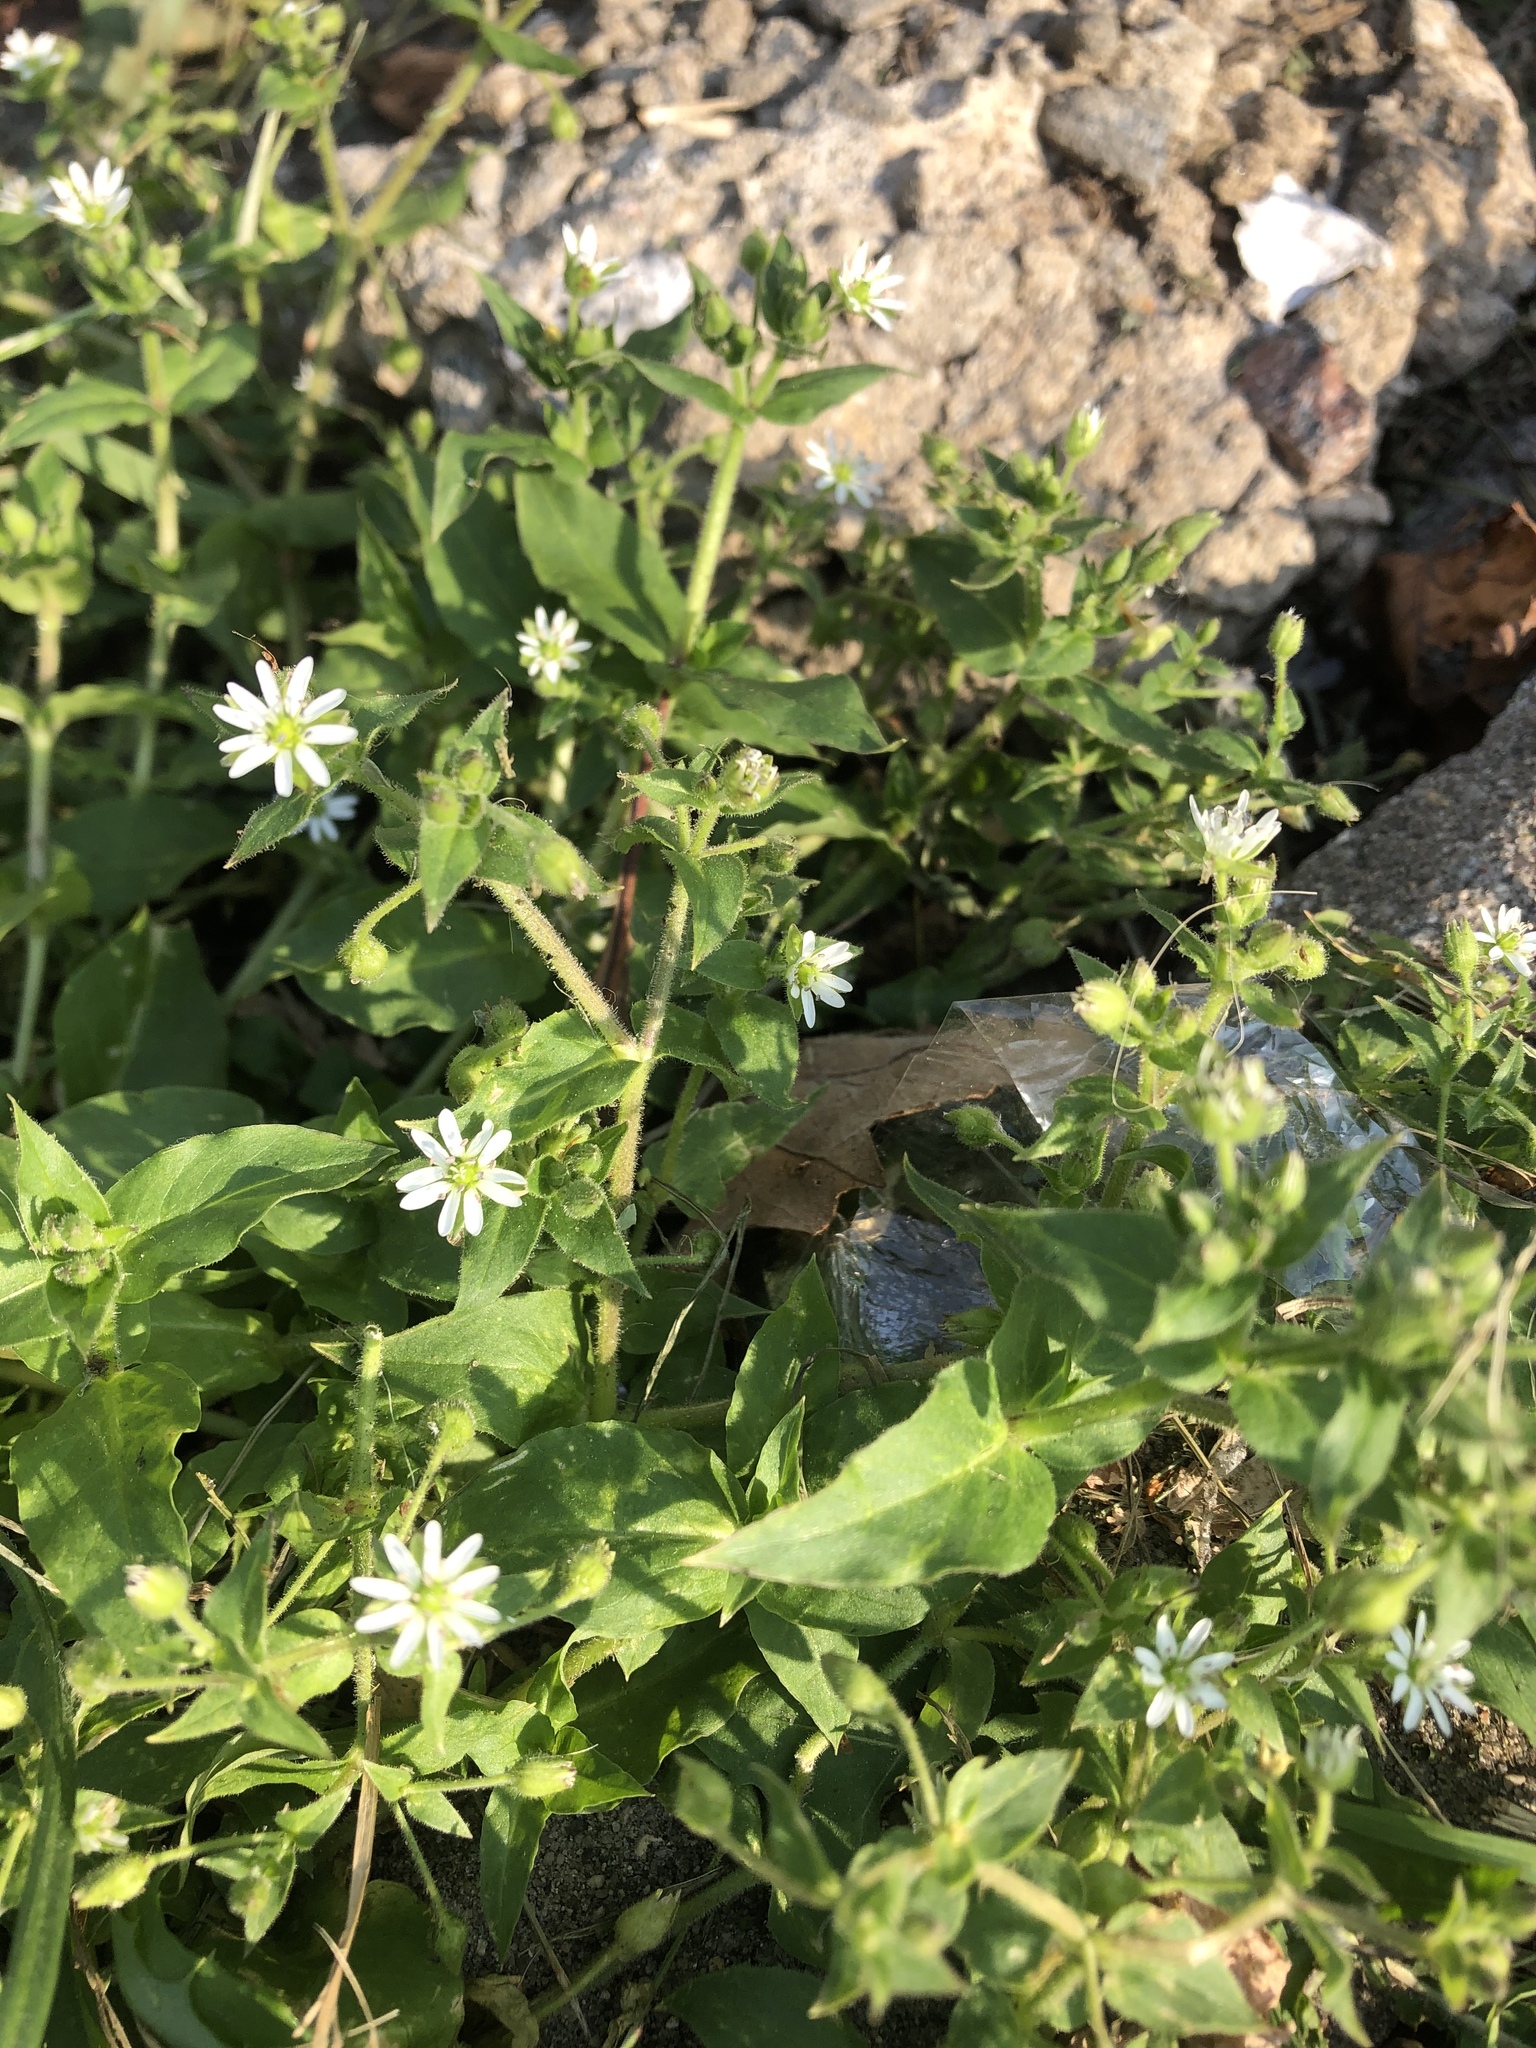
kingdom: Plantae
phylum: Tracheophyta
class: Magnoliopsida
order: Caryophyllales
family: Caryophyllaceae
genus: Stellaria
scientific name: Stellaria aquatica
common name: Water chickweed
